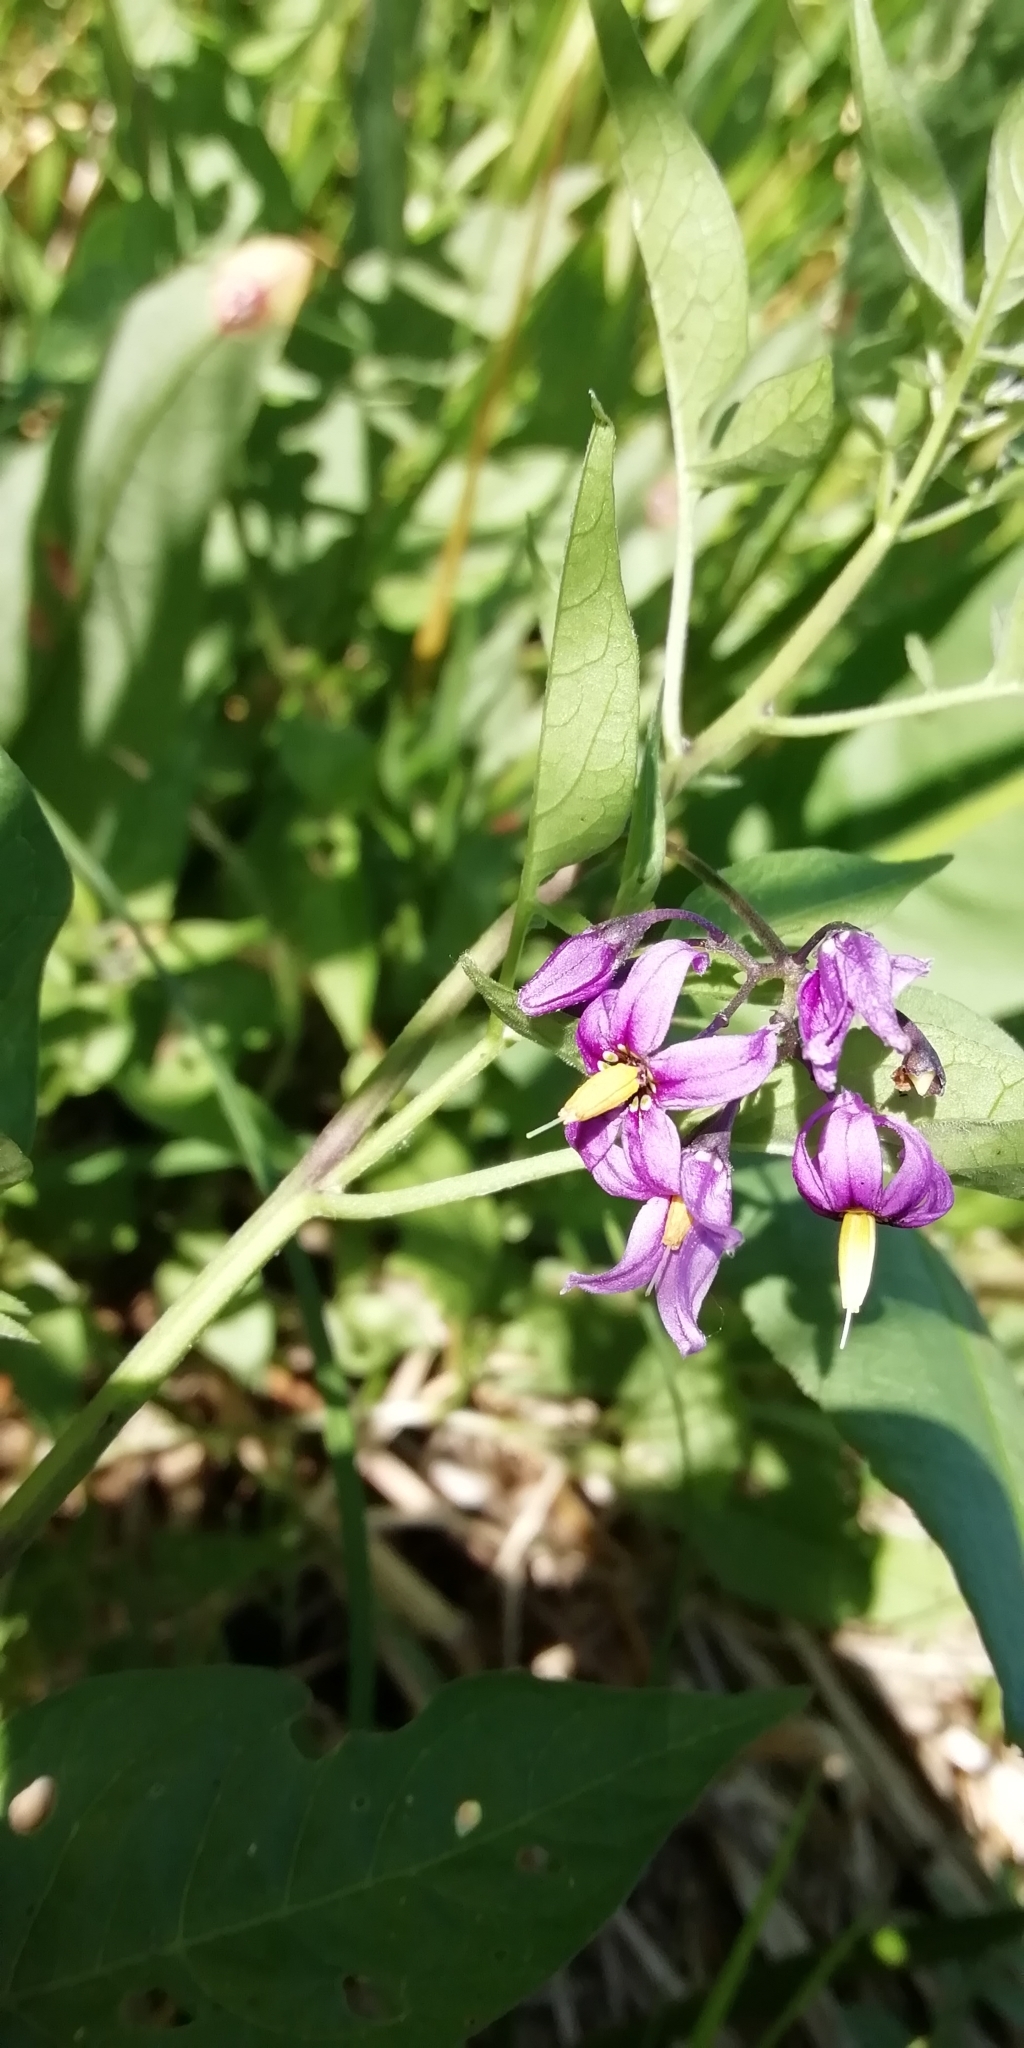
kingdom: Plantae
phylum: Tracheophyta
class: Magnoliopsida
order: Solanales
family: Solanaceae
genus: Solanum
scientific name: Solanum dulcamara
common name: Climbing nightshade
